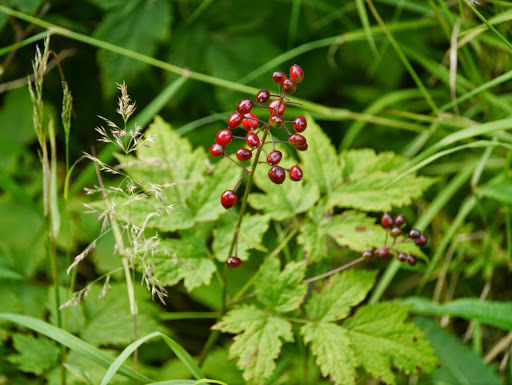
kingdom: Plantae
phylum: Tracheophyta
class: Magnoliopsida
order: Ranunculales
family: Ranunculaceae
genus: Actaea
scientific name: Actaea rubra
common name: Red baneberry
